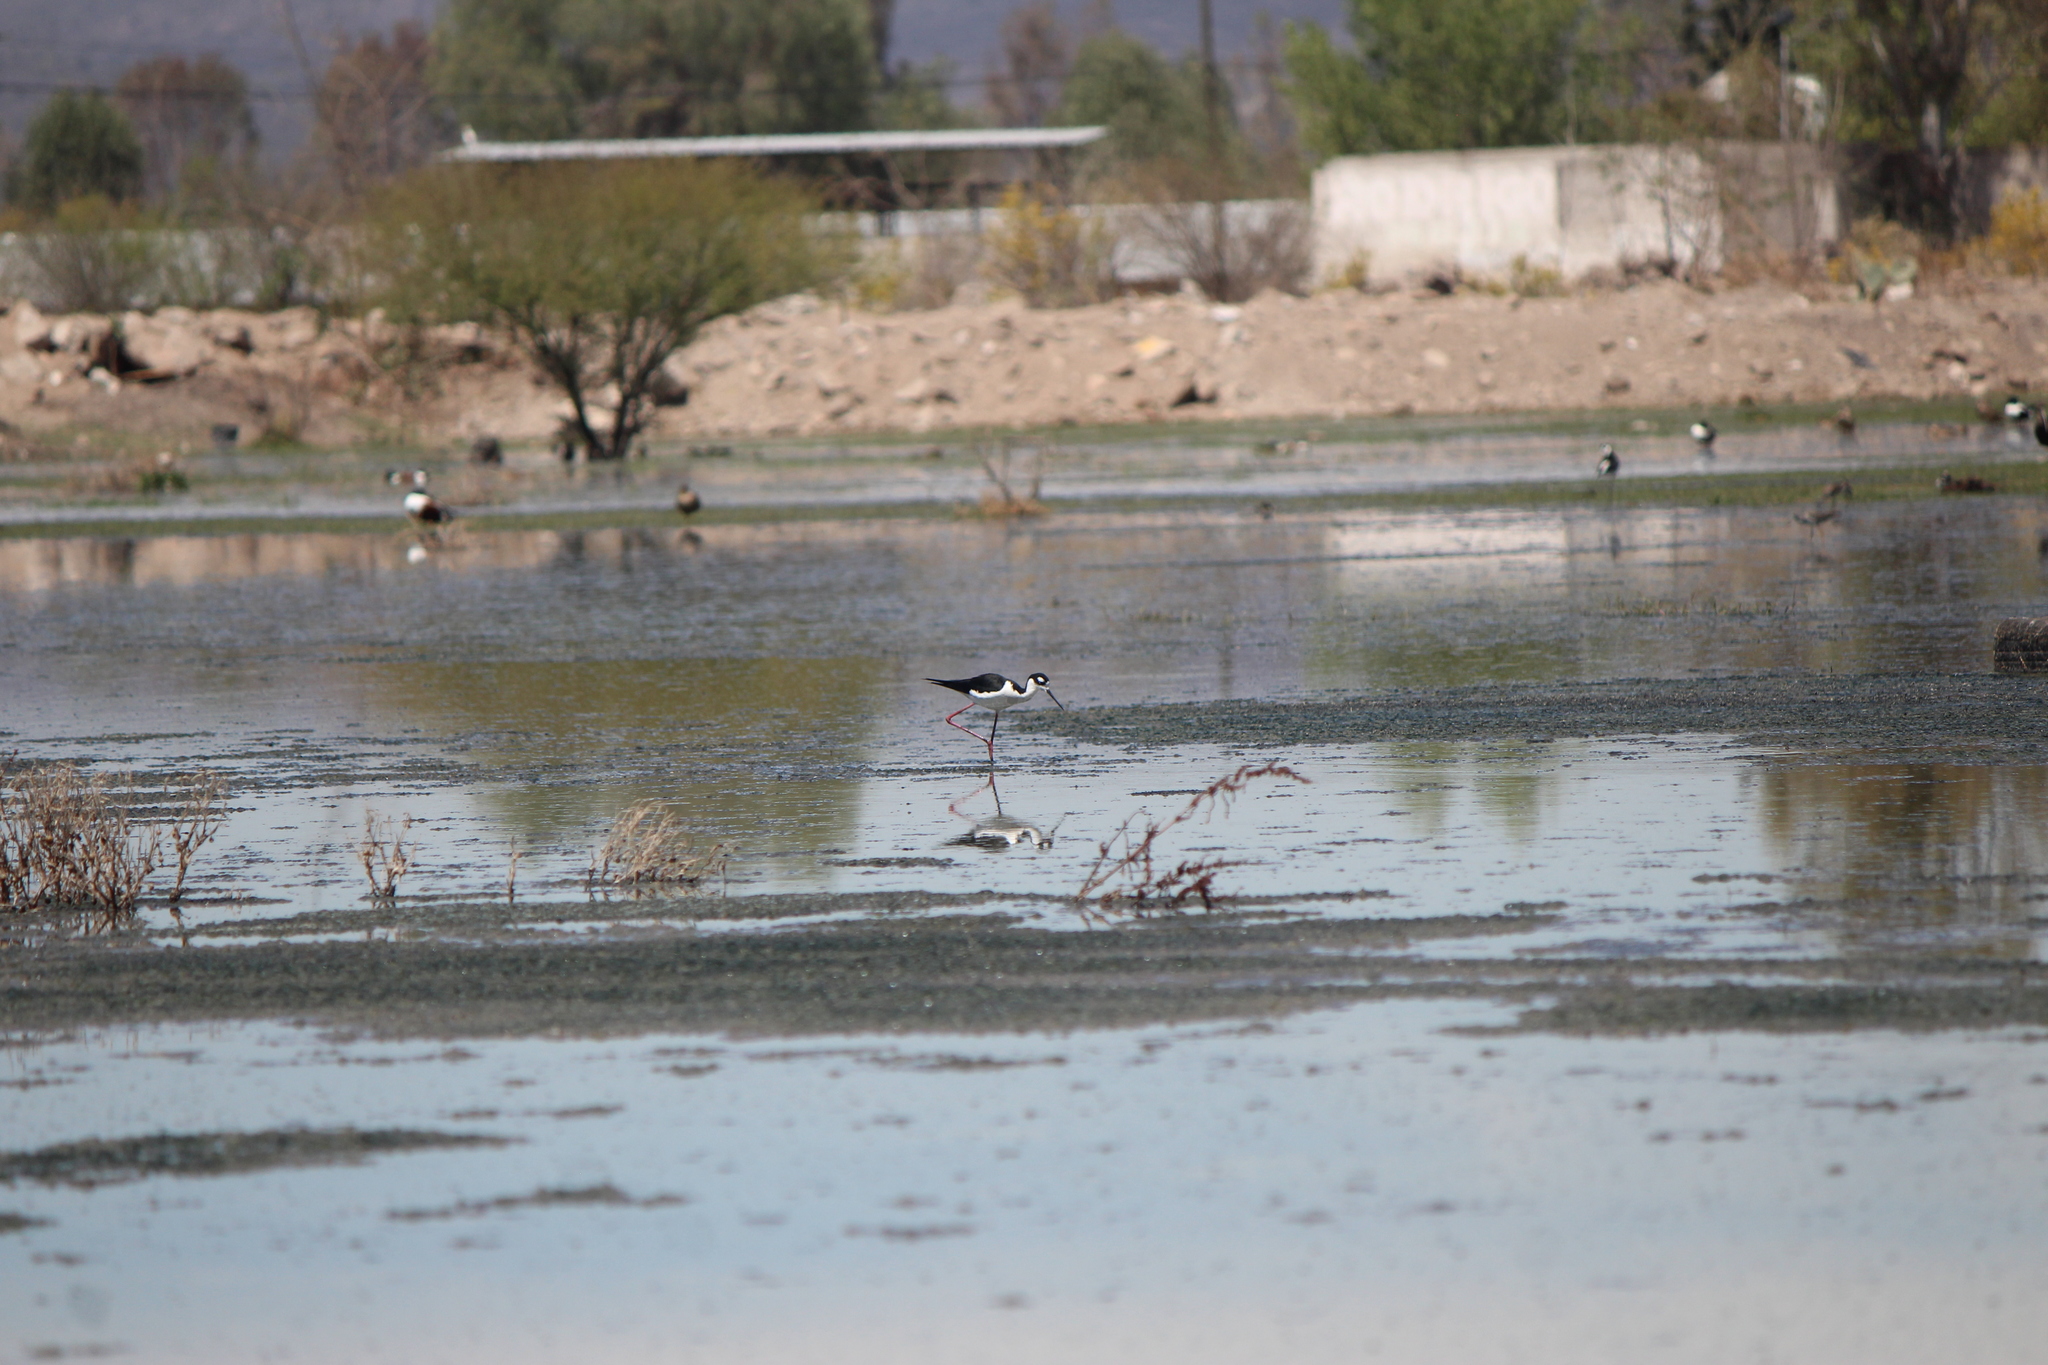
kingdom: Animalia
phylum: Chordata
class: Aves
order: Charadriiformes
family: Recurvirostridae
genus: Himantopus
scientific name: Himantopus mexicanus
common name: Black-necked stilt
